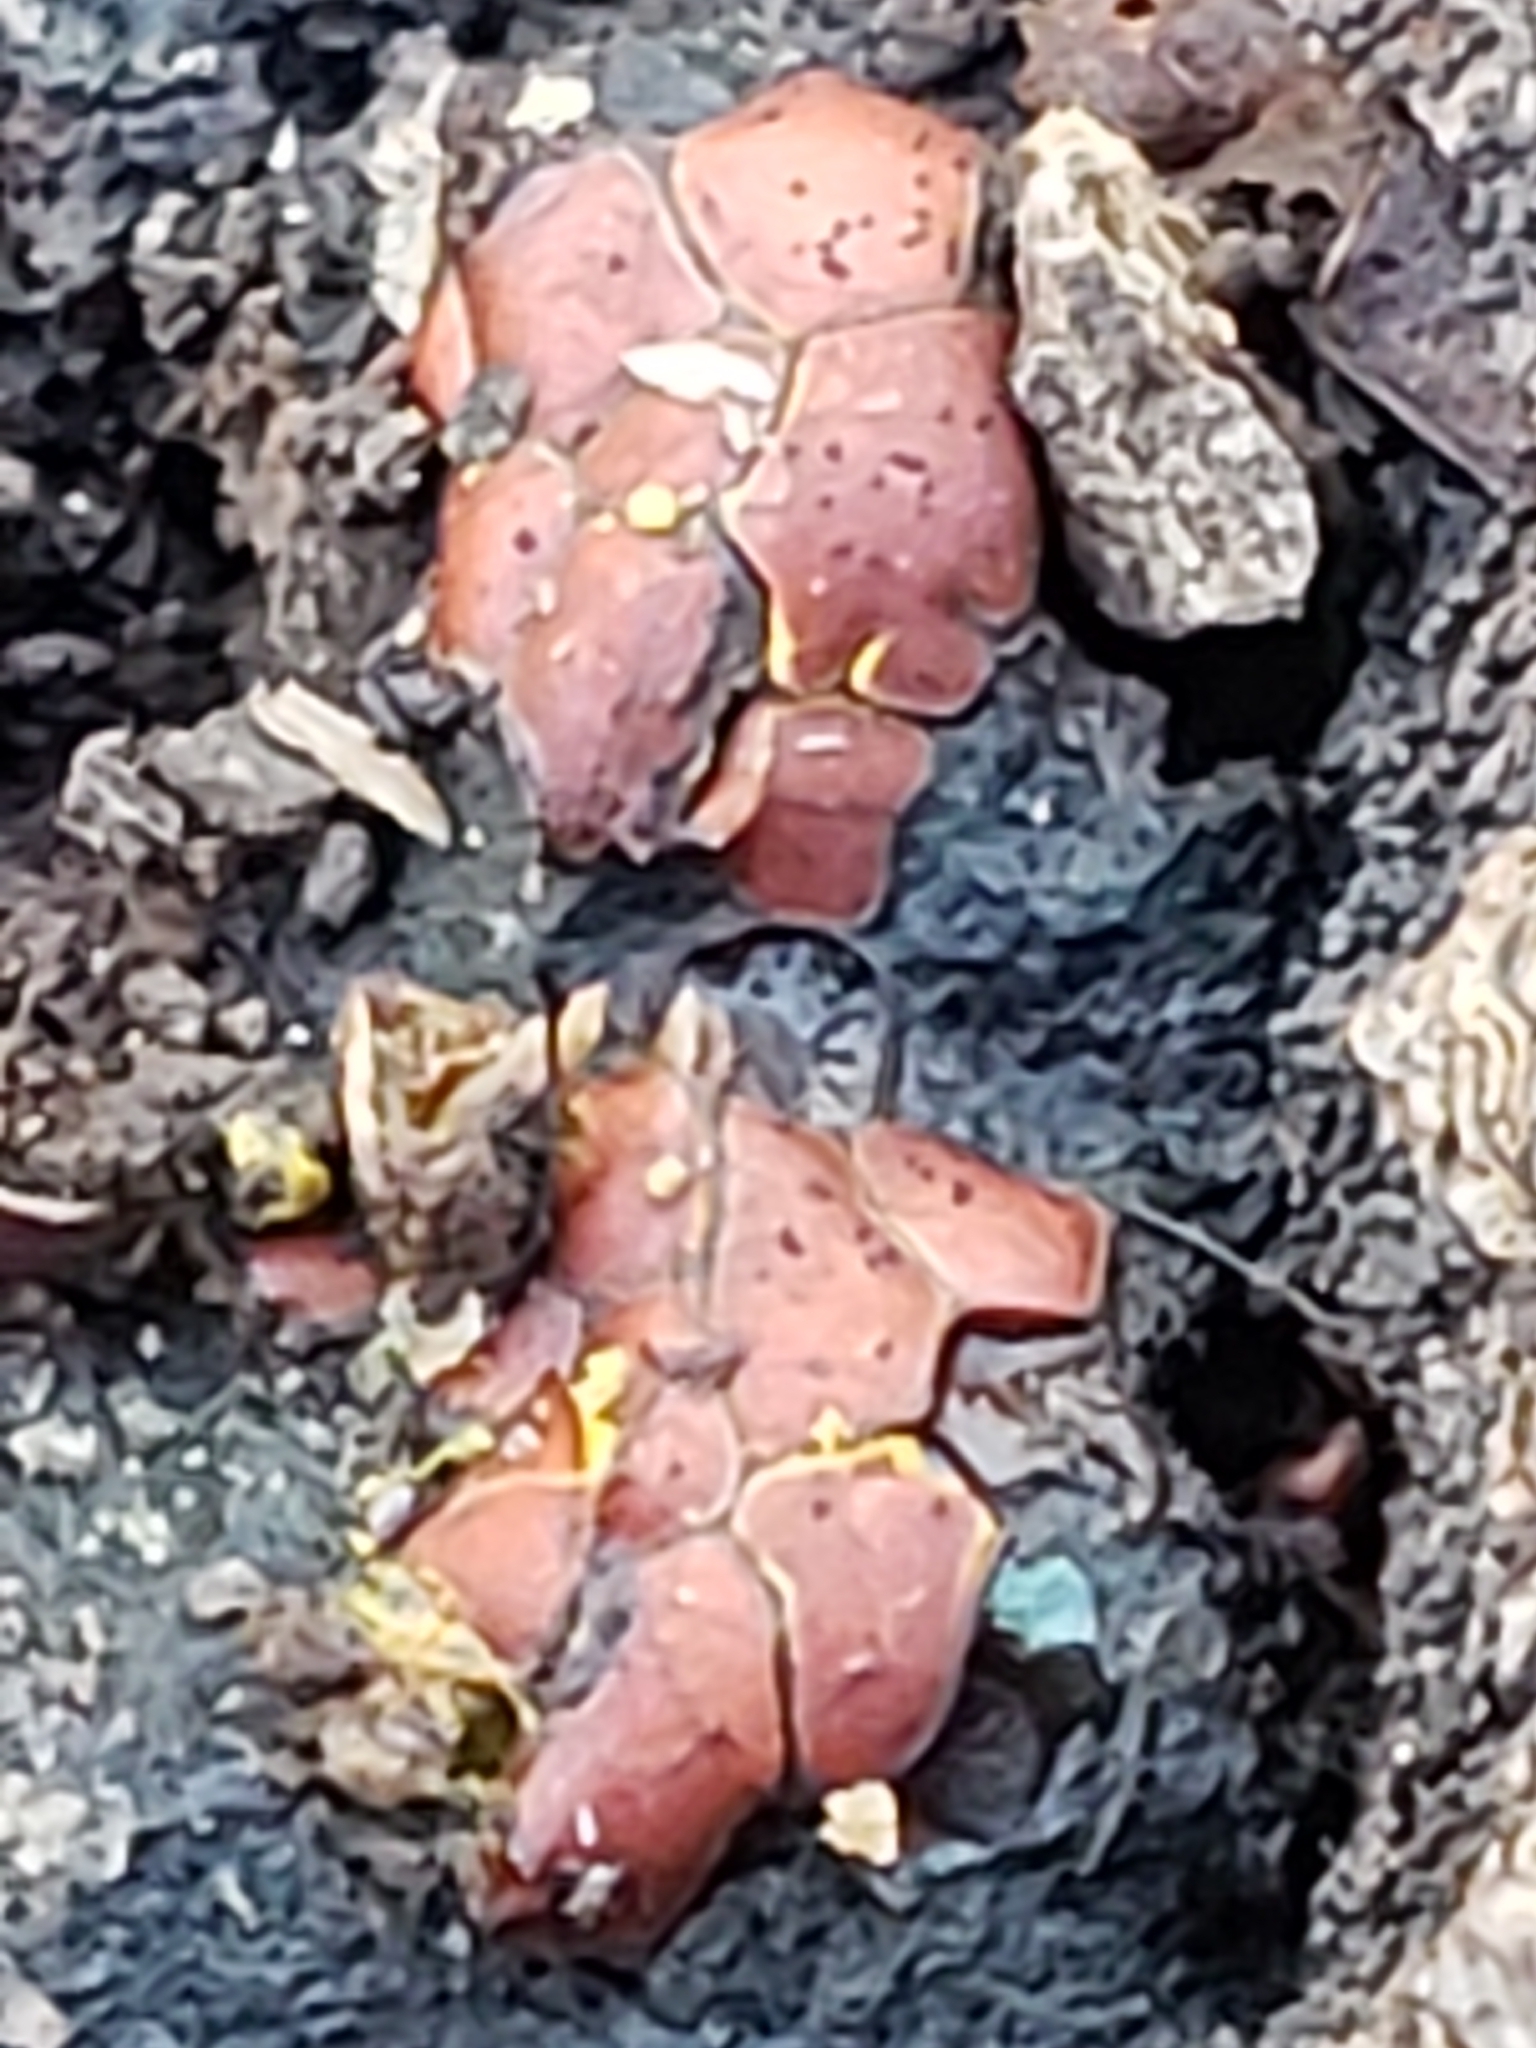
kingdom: Protozoa
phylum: Mycetozoa
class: Myxomycetes
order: Trichiales
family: Trichiaceae
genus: Perichaena
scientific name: Perichaena depressa
